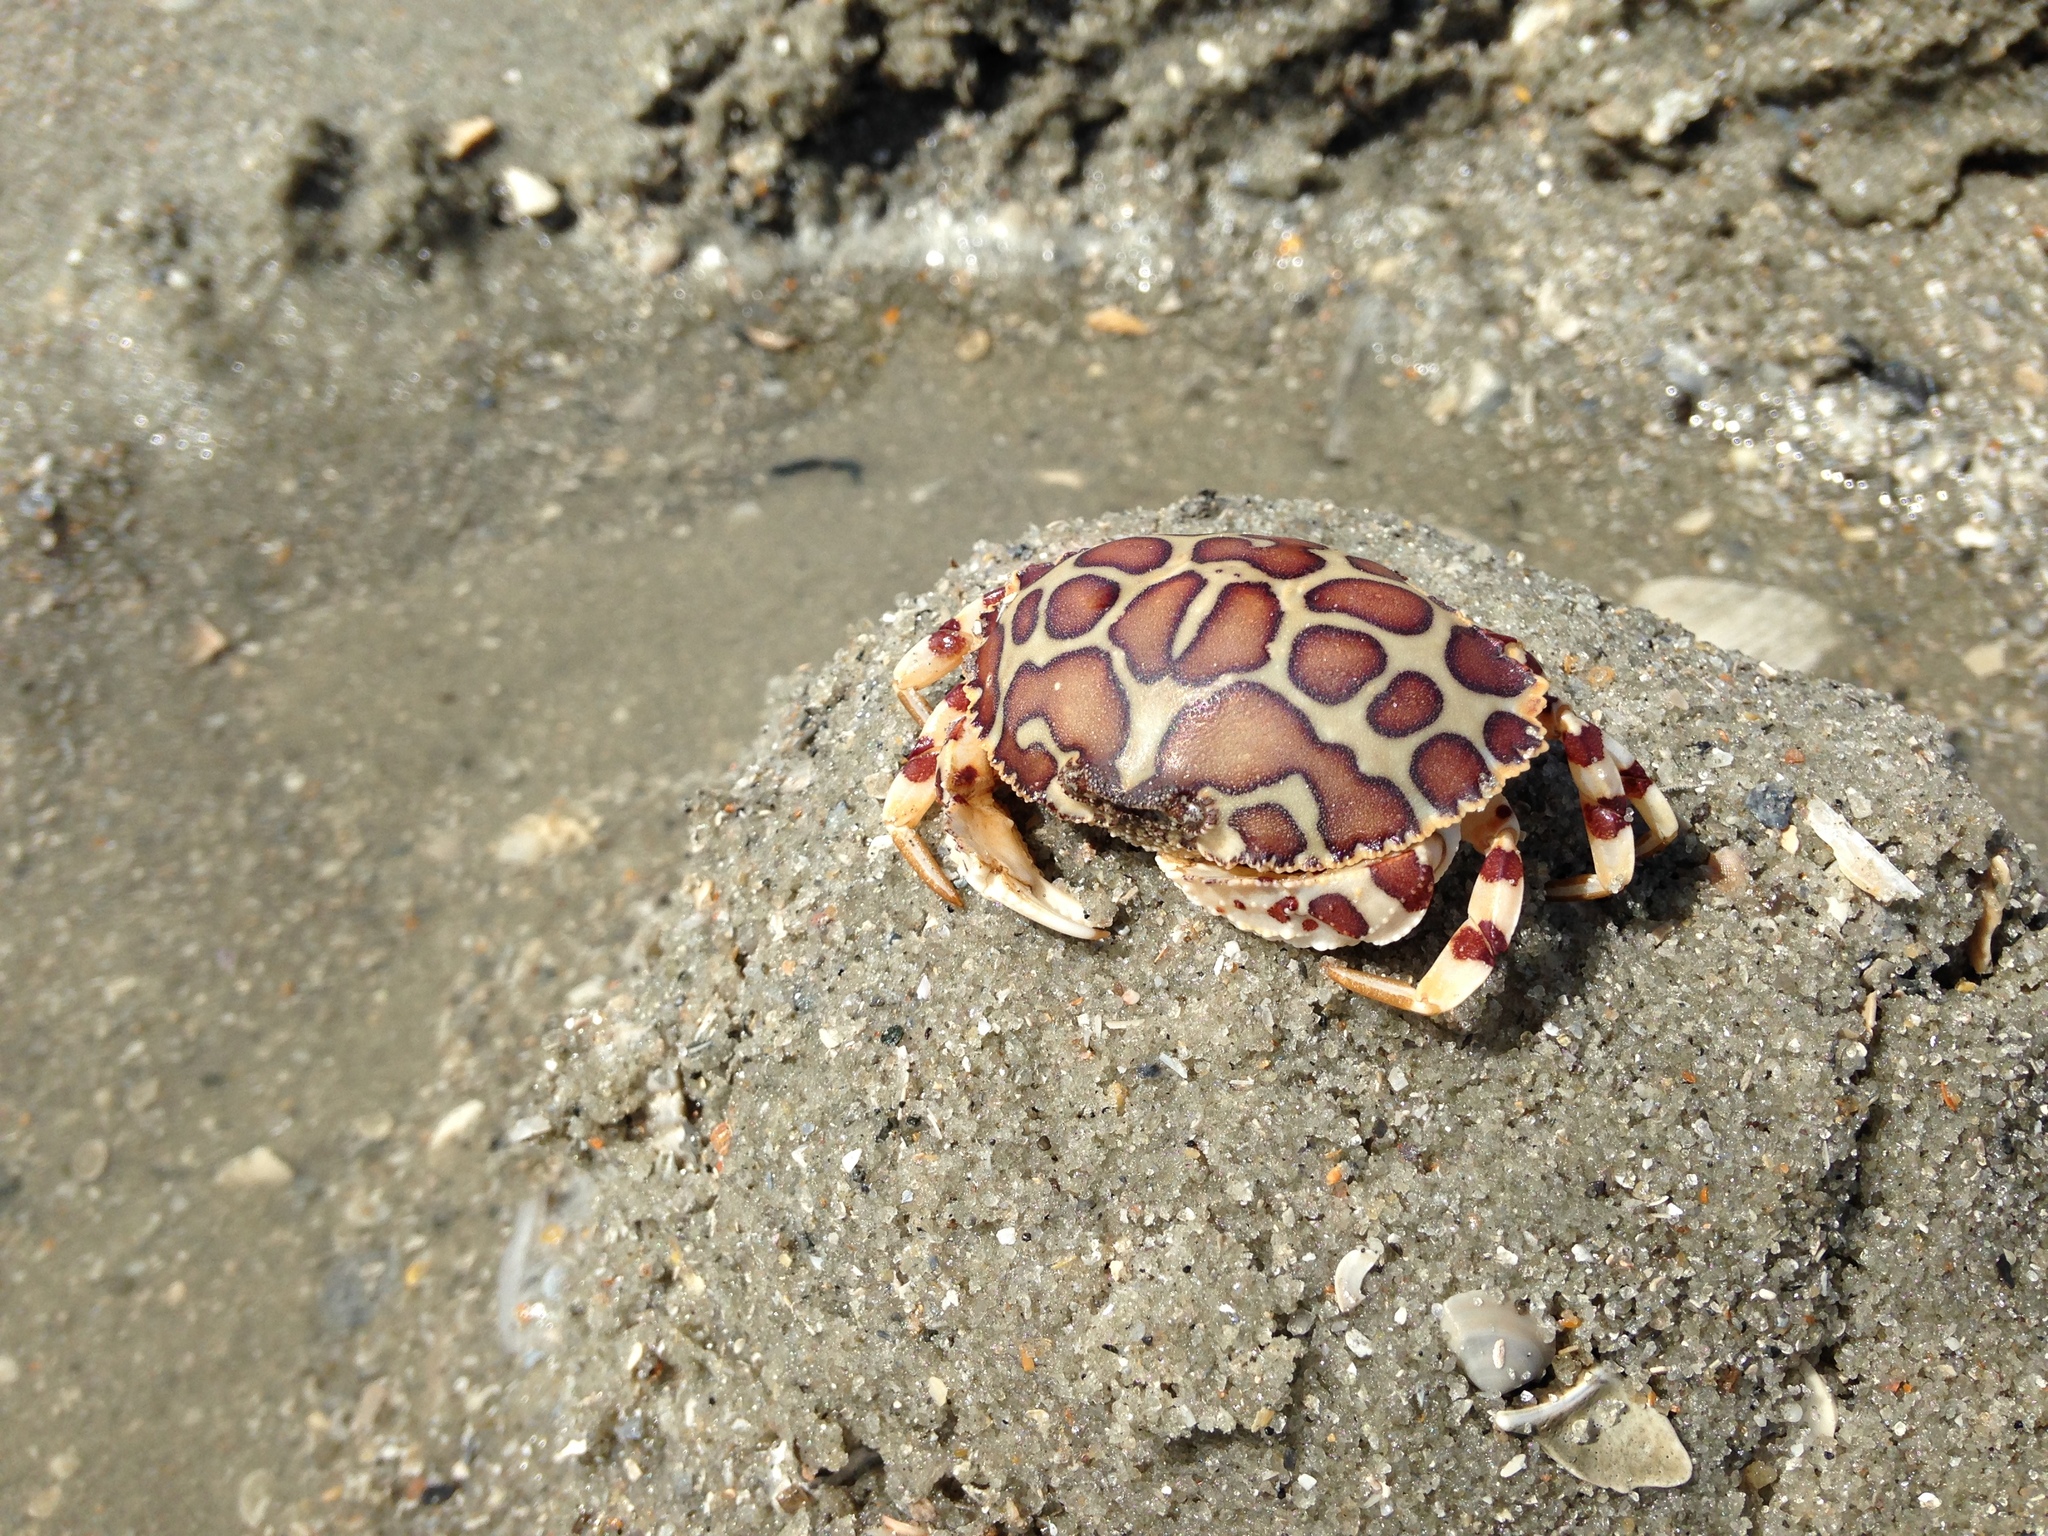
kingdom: Animalia
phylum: Arthropoda
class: Malacostraca
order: Decapoda
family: Aethridae
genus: Hepatus
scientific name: Hepatus epheliticus
